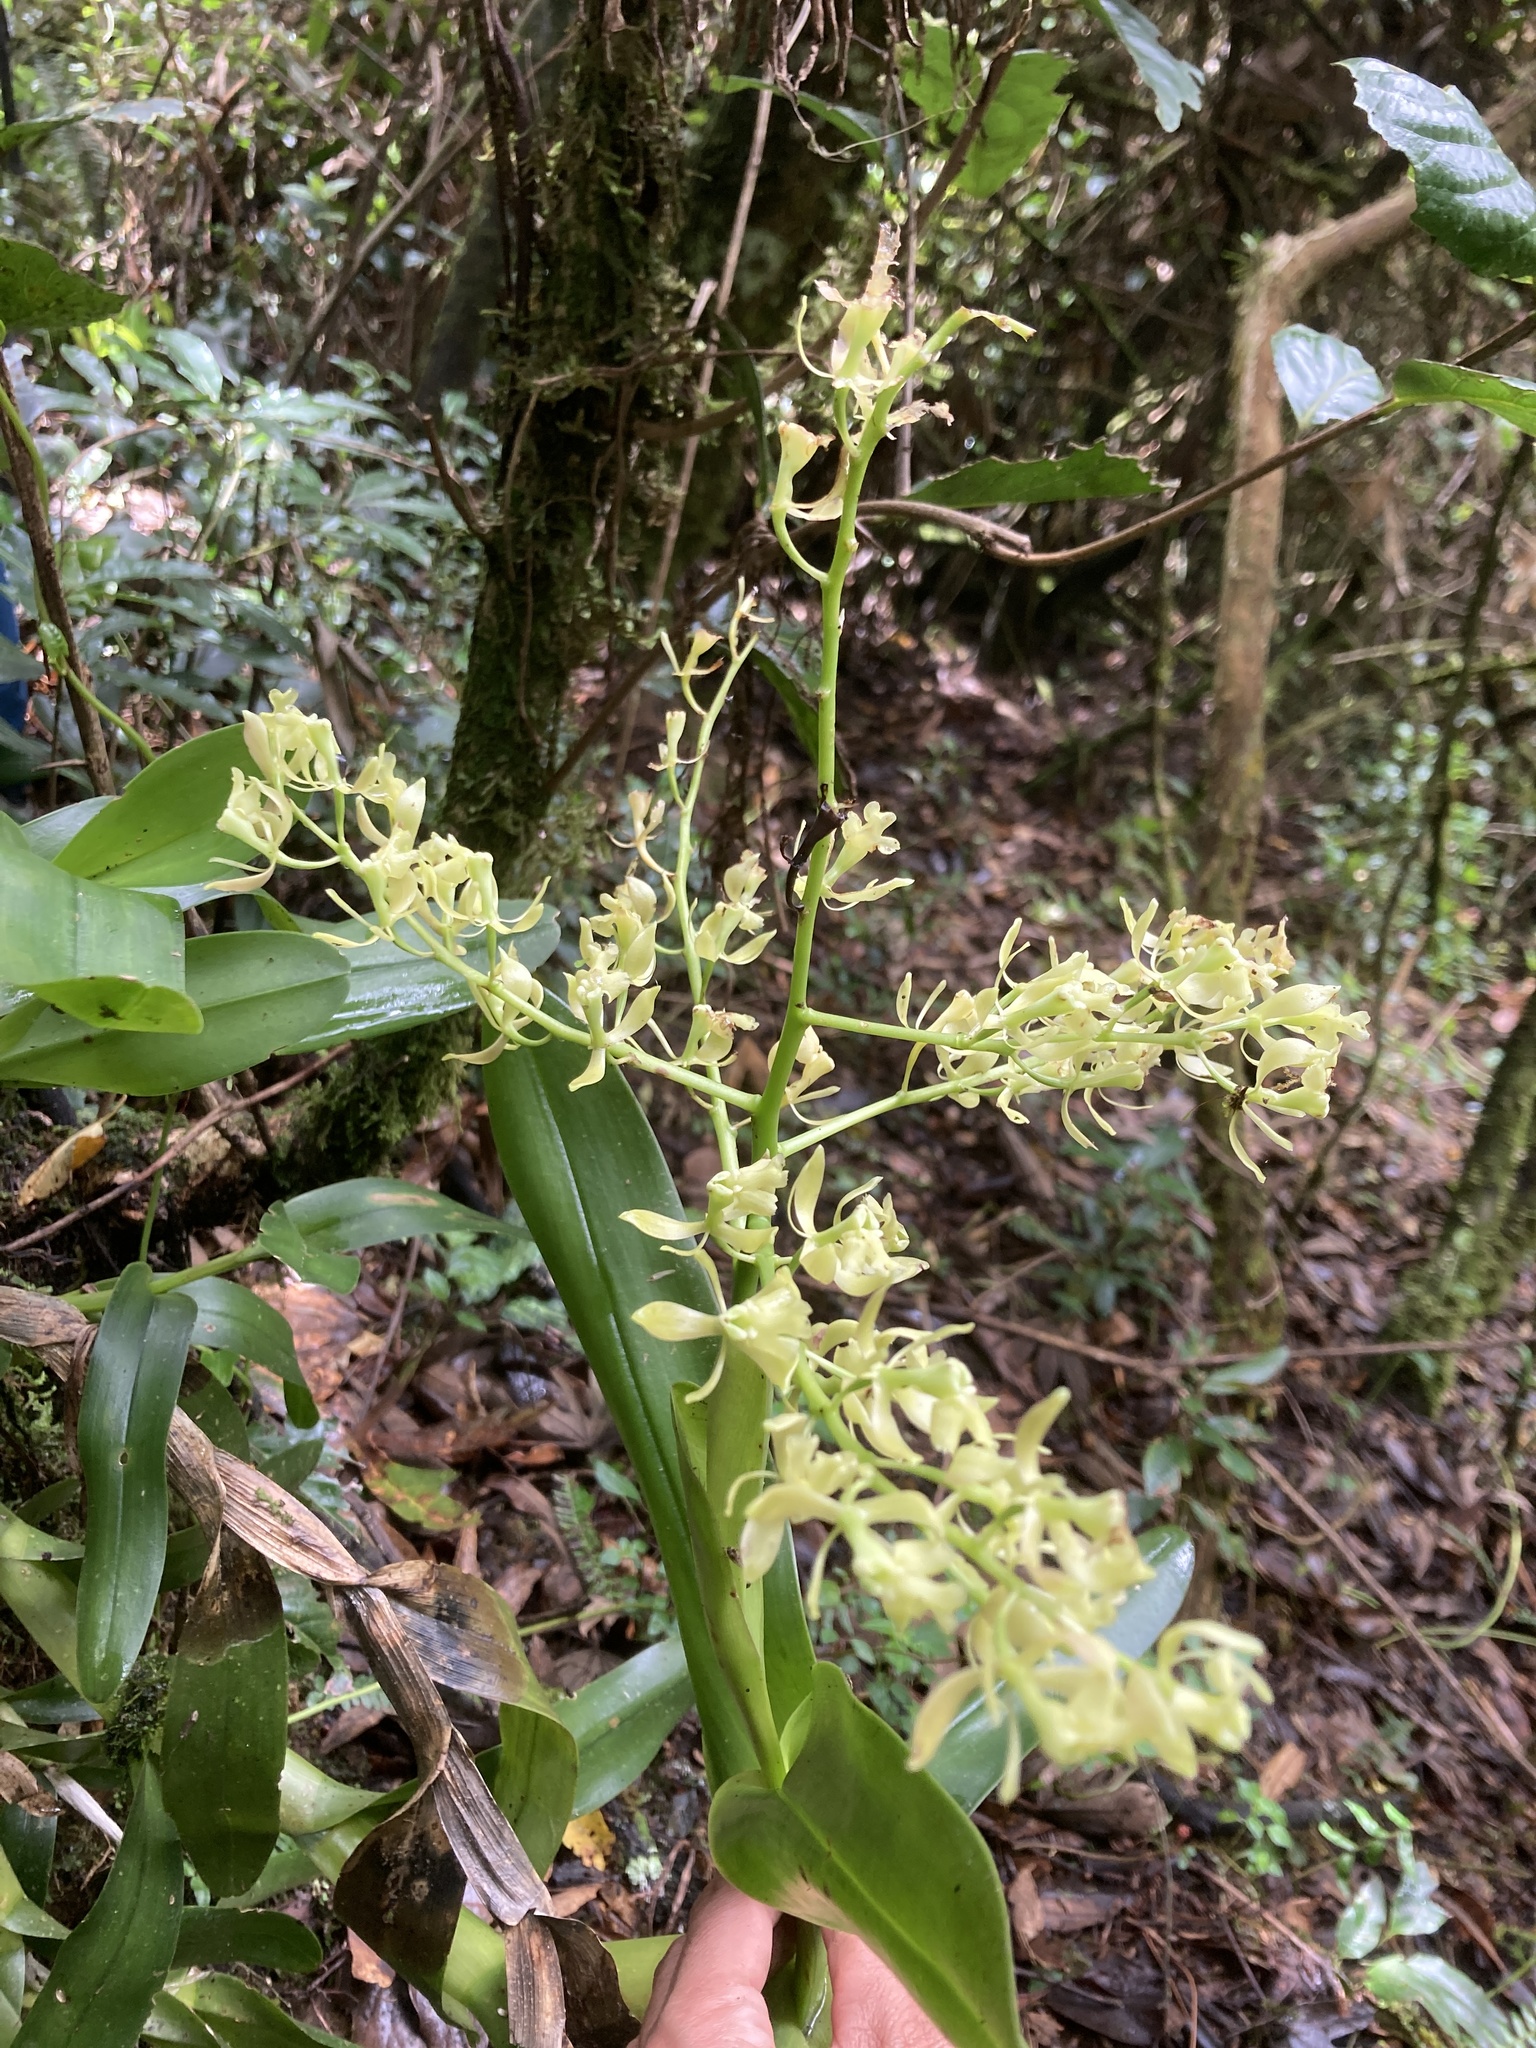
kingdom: Plantae
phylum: Tracheophyta
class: Liliopsida
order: Asparagales
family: Orchidaceae
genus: Epidendrum
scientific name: Epidendrum excisum
